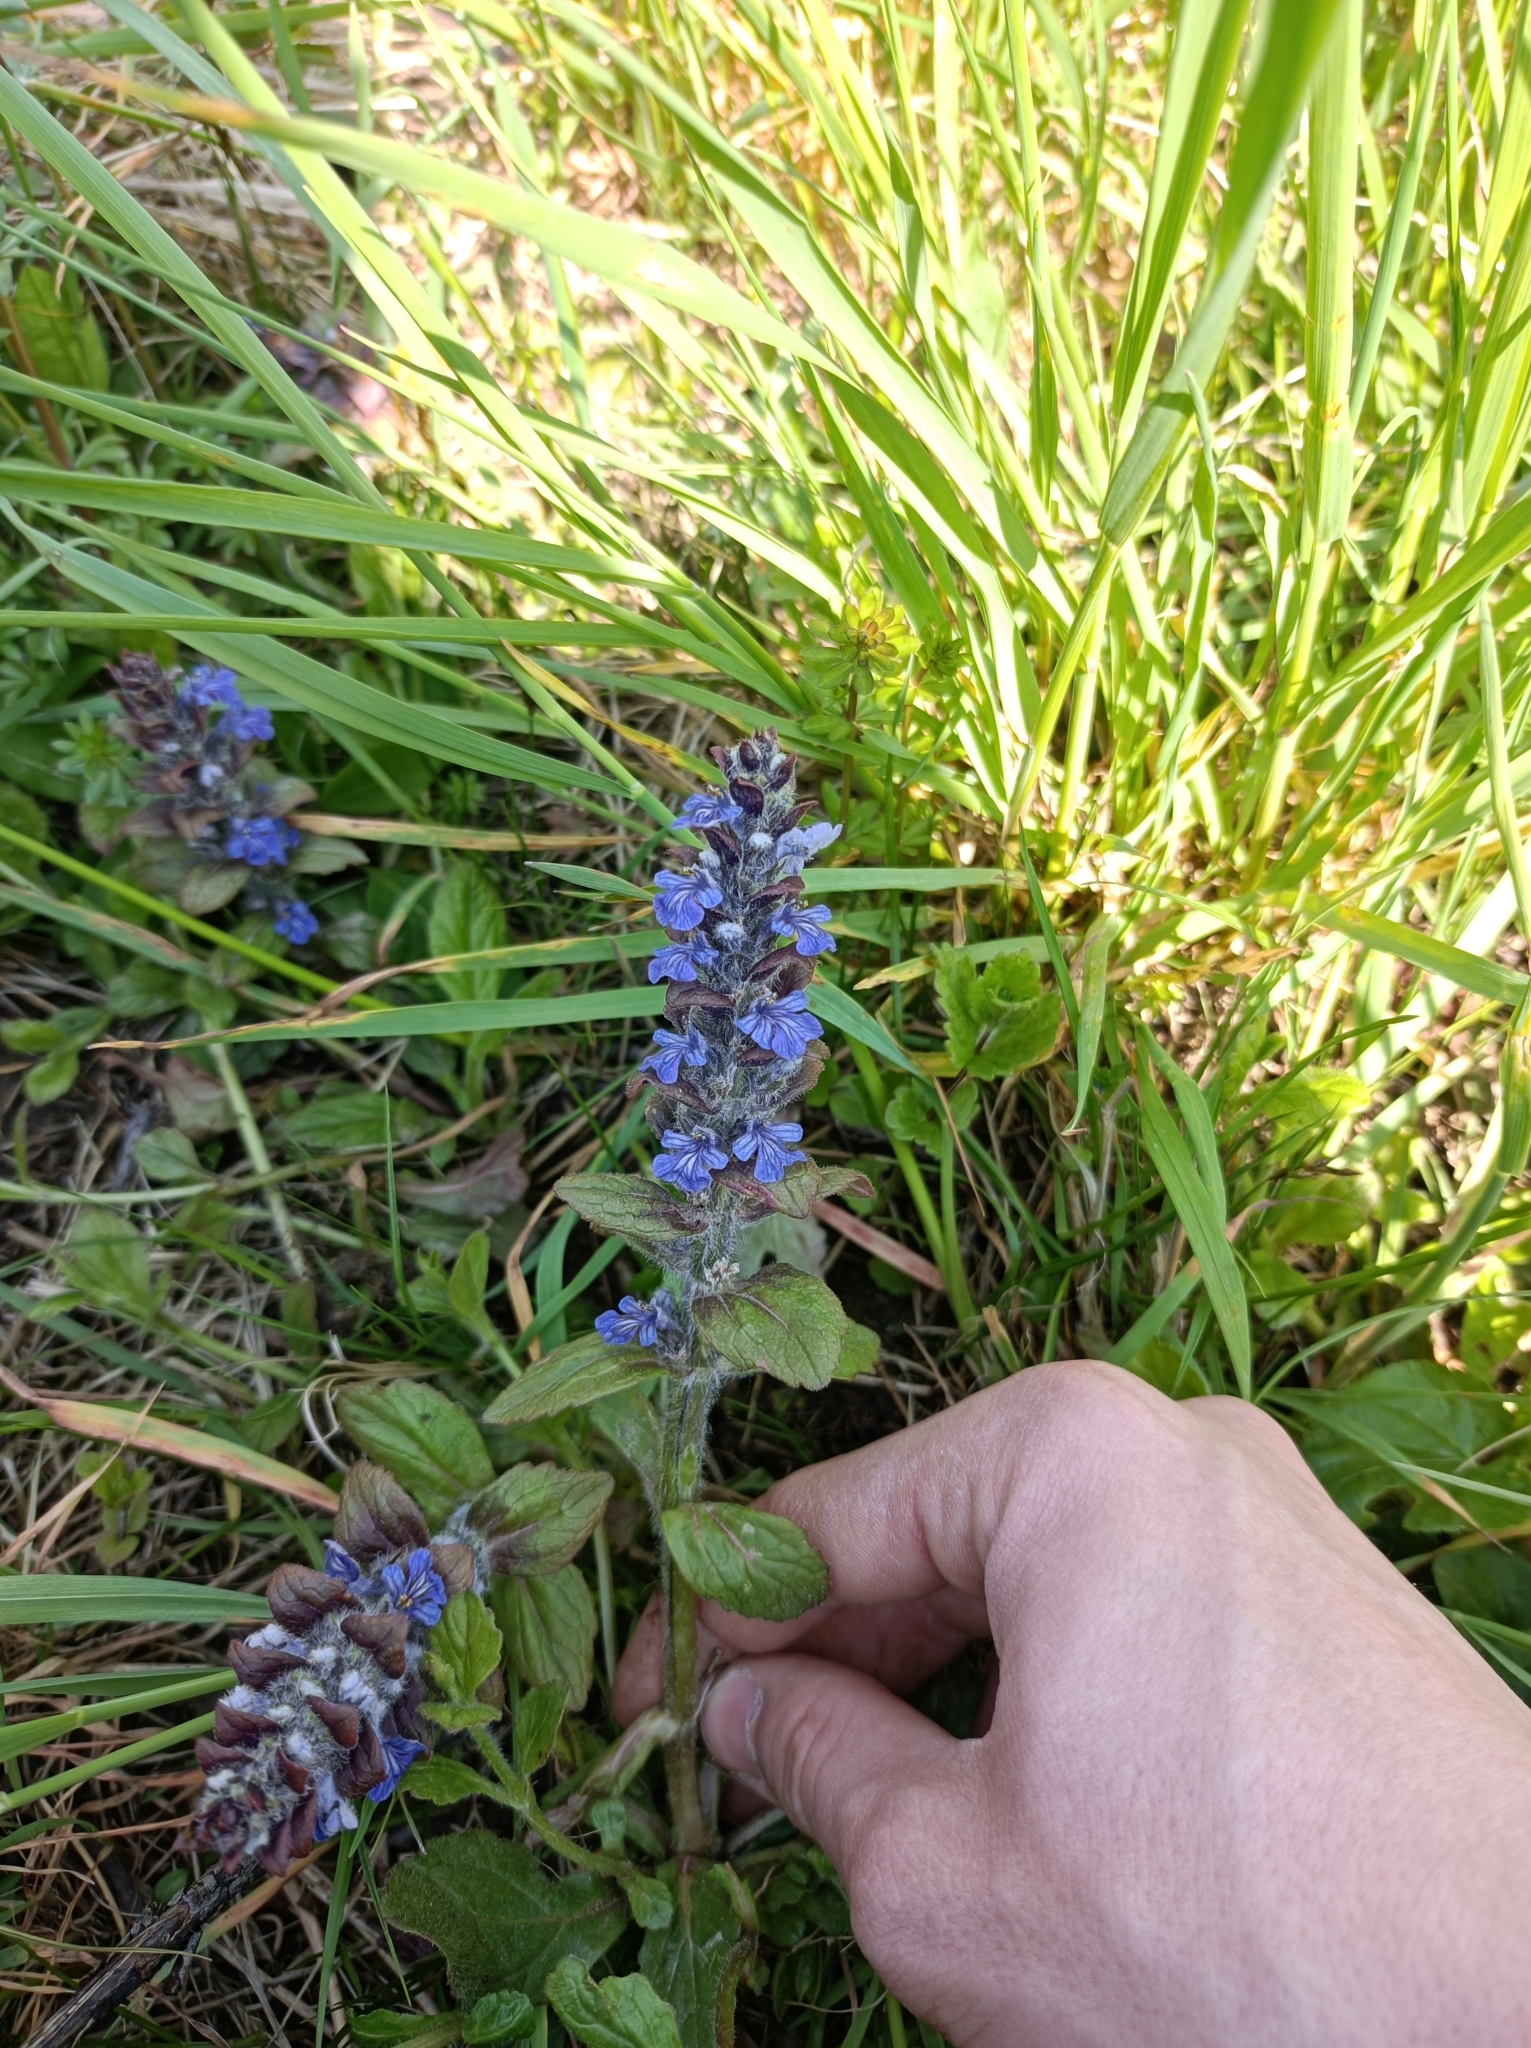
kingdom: Plantae
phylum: Tracheophyta
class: Magnoliopsida
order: Lamiales
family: Lamiaceae
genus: Ajuga
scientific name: Ajuga reptans
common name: Bugle
